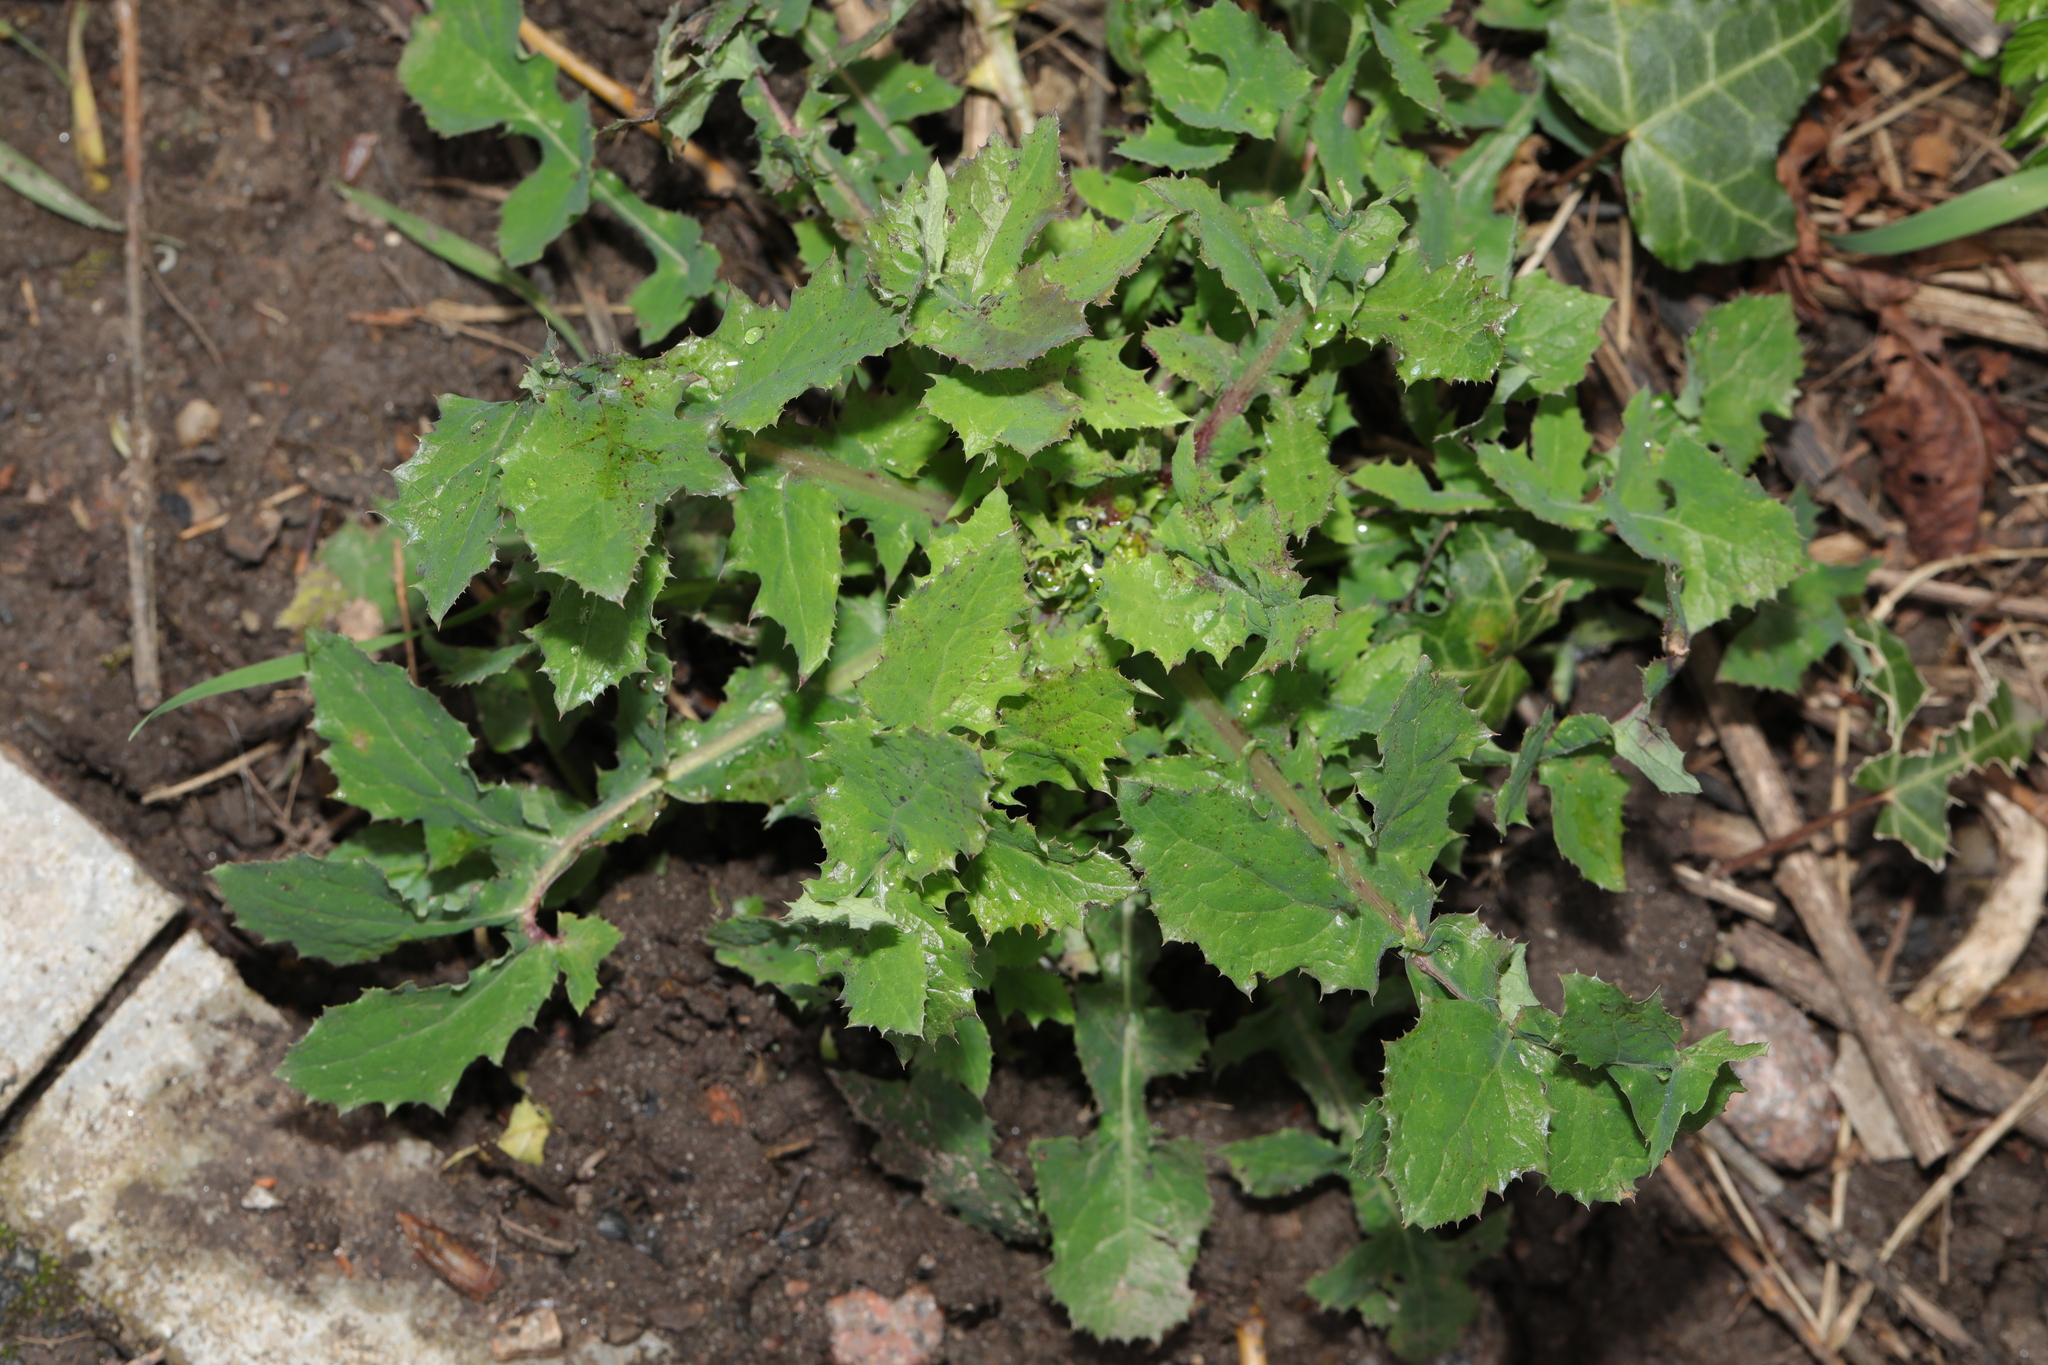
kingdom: Plantae
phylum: Tracheophyta
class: Magnoliopsida
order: Asterales
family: Asteraceae
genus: Sonchus
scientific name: Sonchus oleraceus
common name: Common sowthistle
